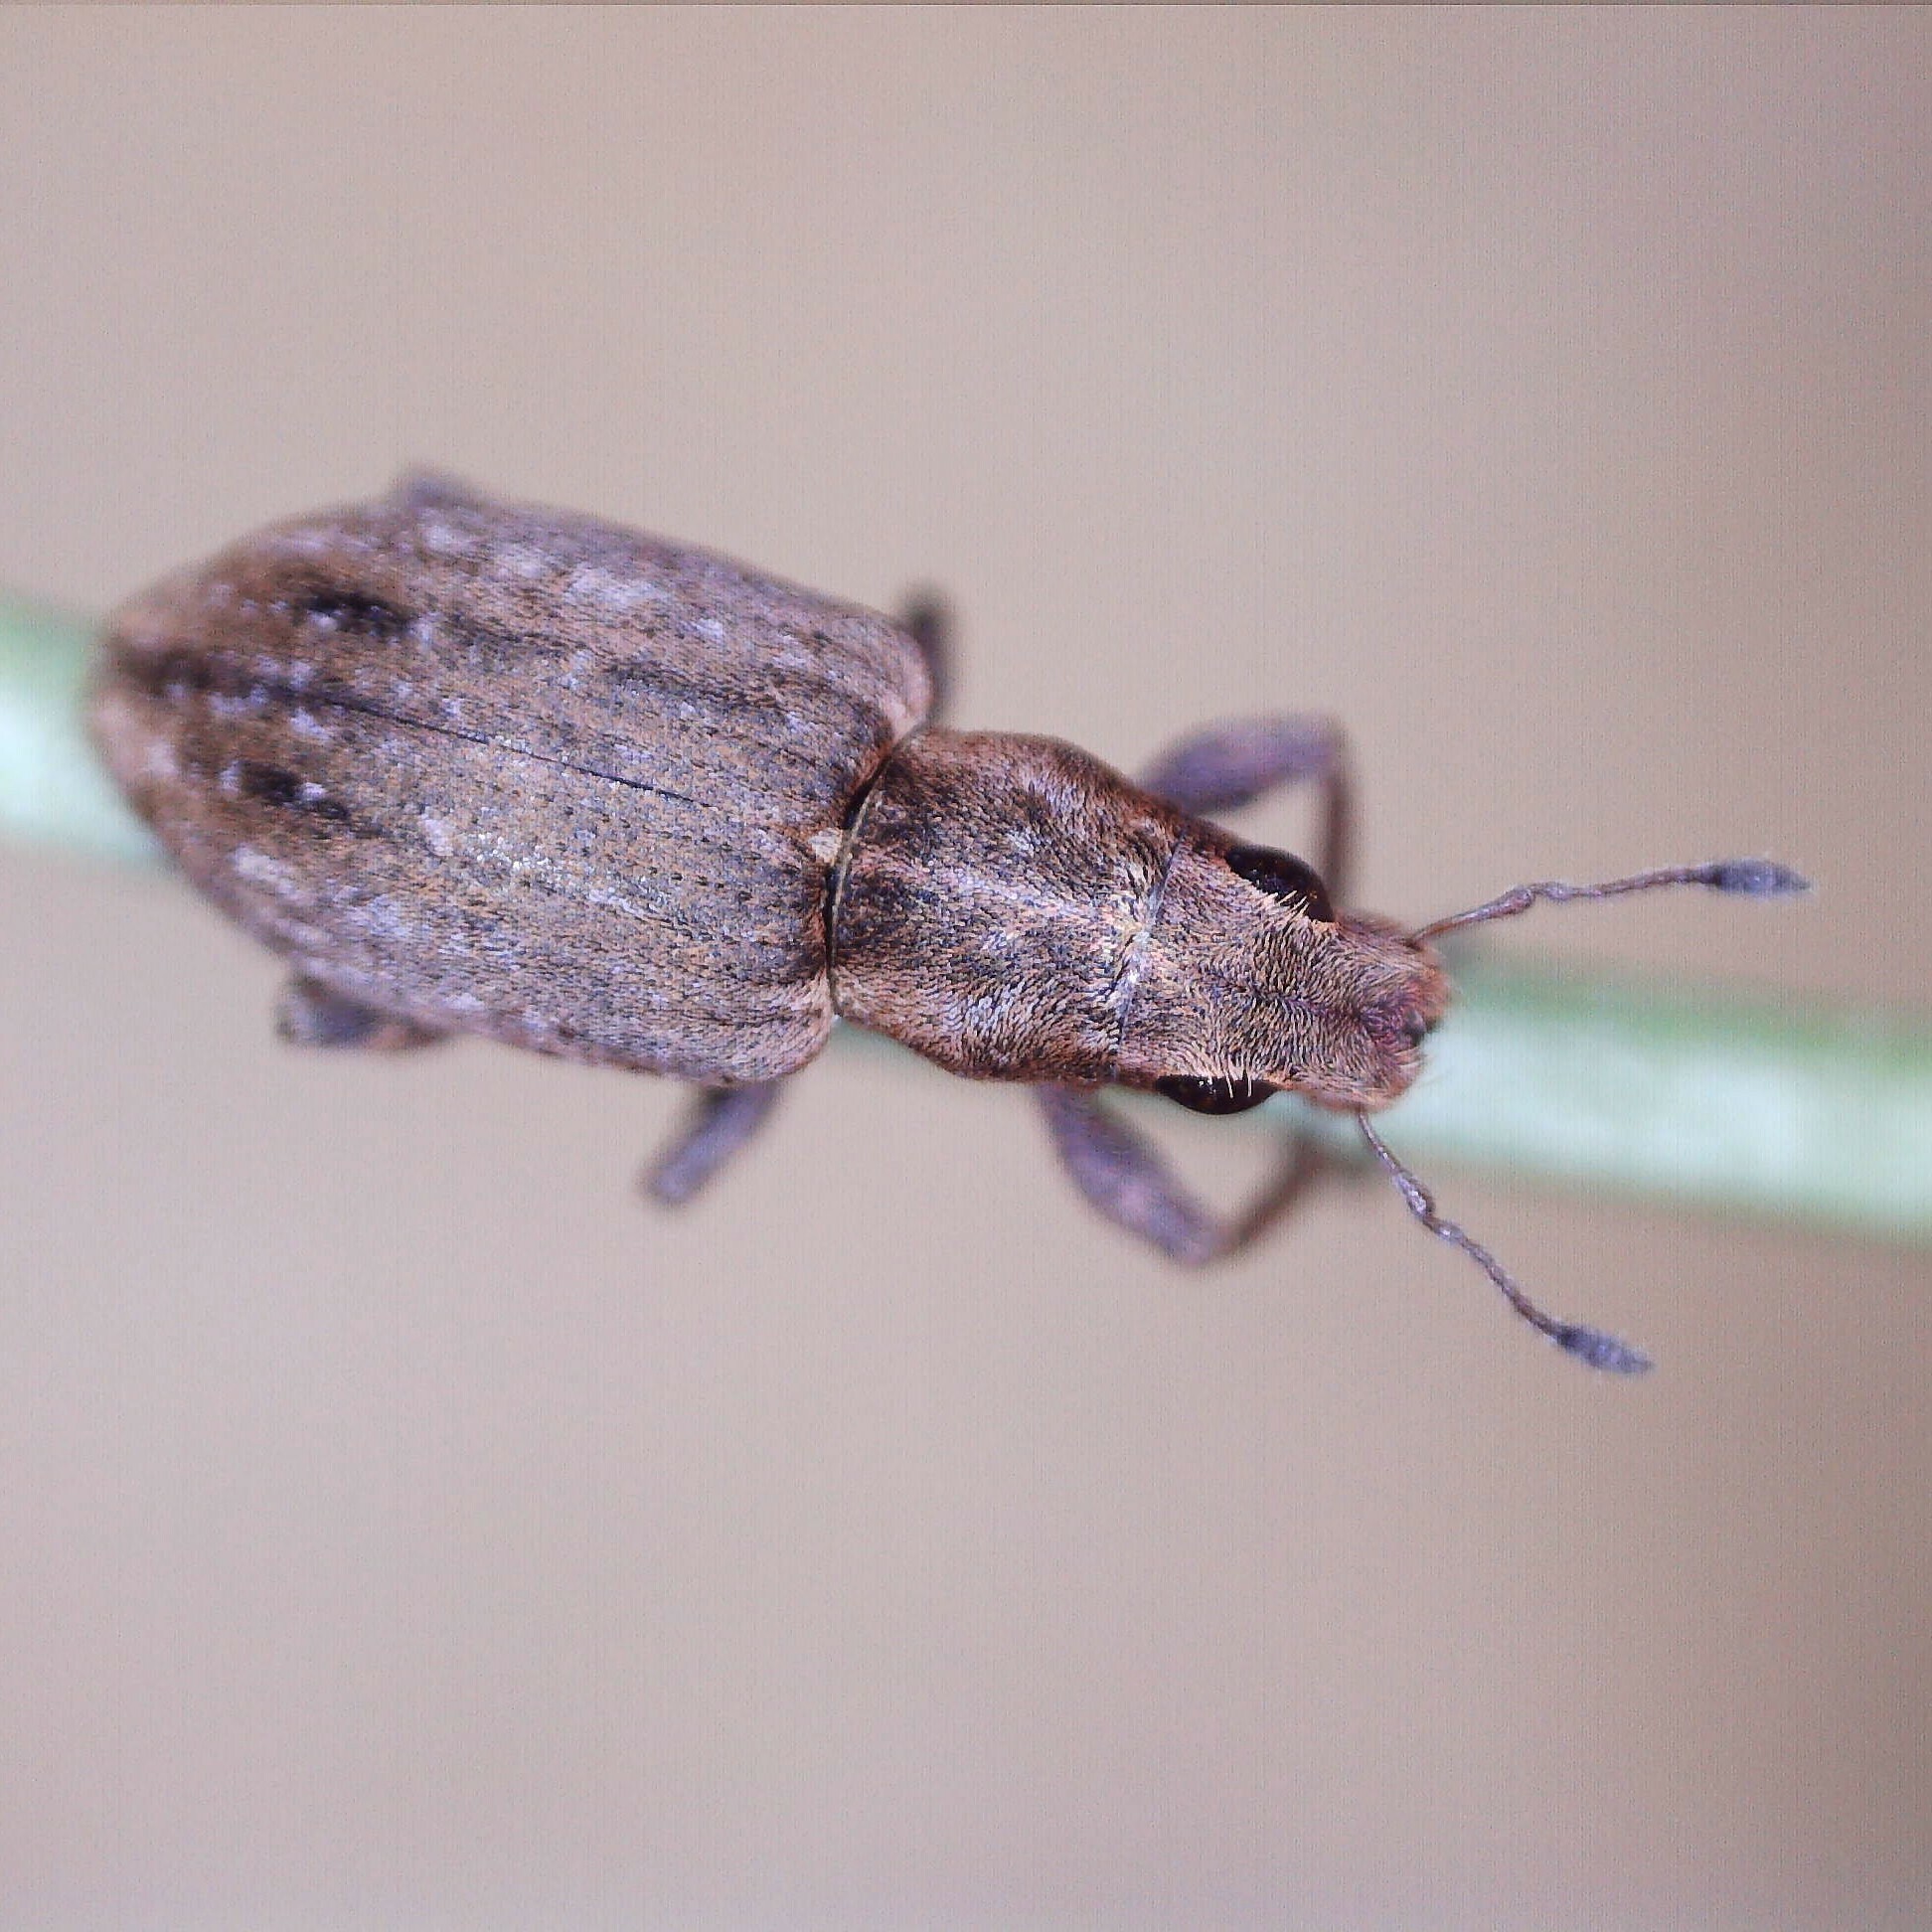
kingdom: Animalia
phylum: Arthropoda
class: Insecta
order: Coleoptera
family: Curculionidae
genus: Sitona
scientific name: Sitona obsoletus
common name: Weevil
